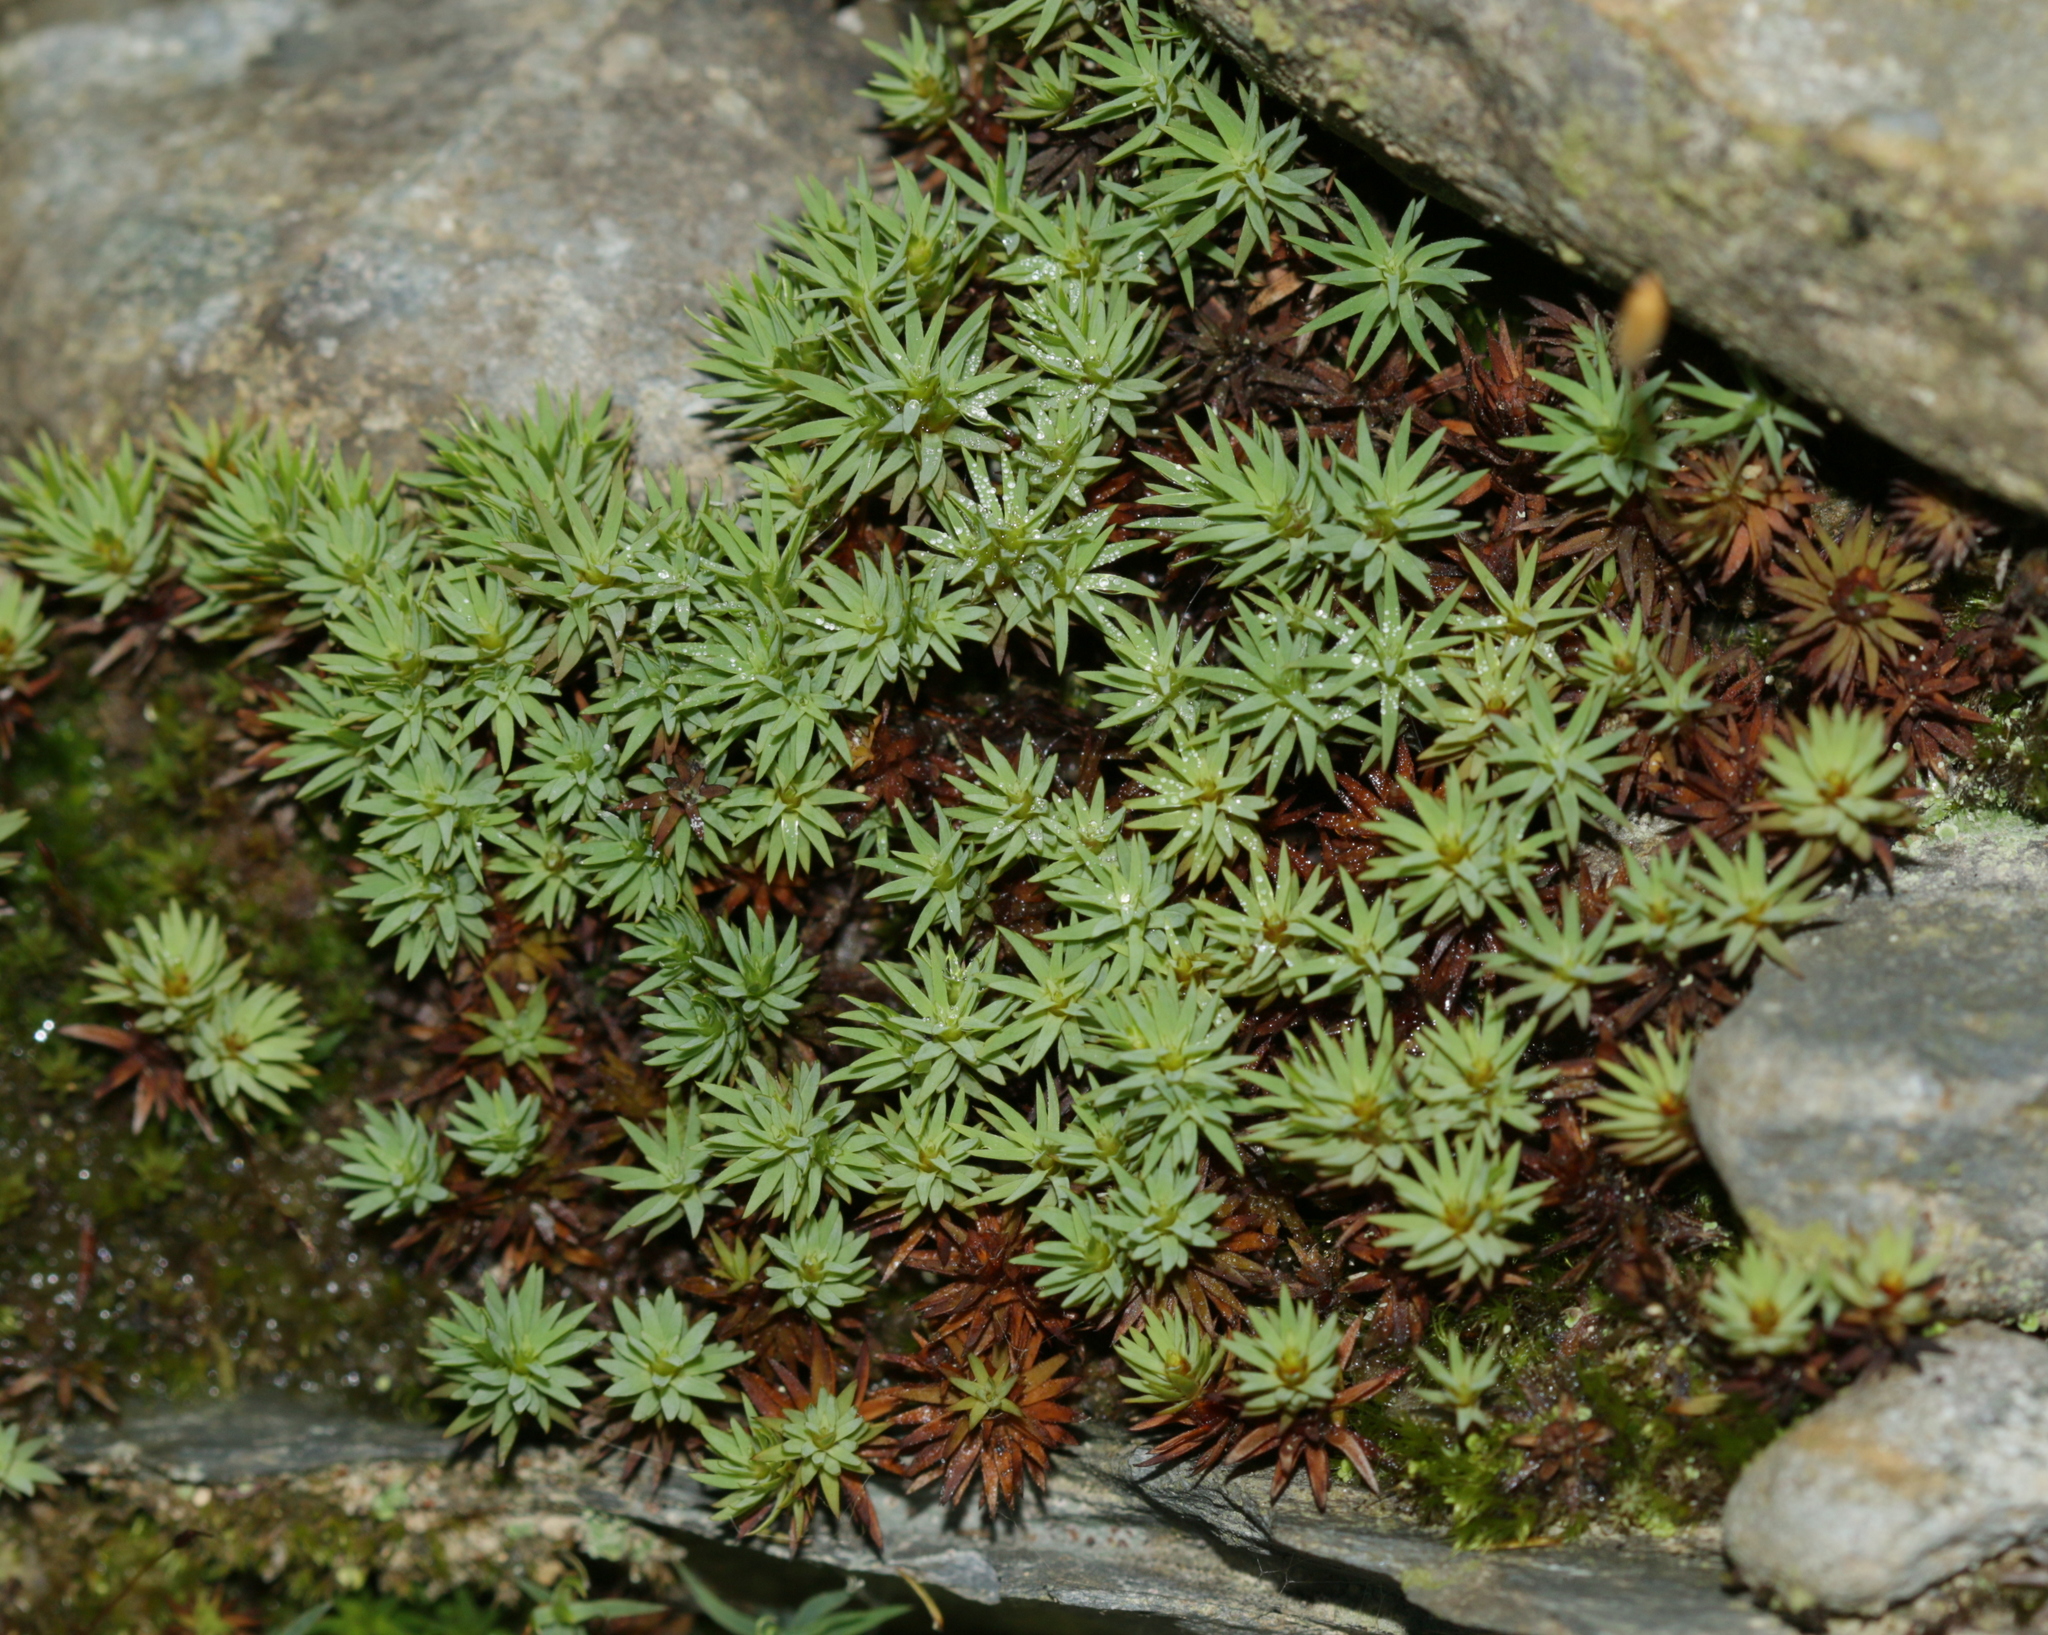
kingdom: Plantae
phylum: Bryophyta
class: Polytrichopsida
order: Polytrichales
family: Polytrichaceae
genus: Pogonatum
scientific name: Pogonatum urnigerum
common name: Urn hair moss
